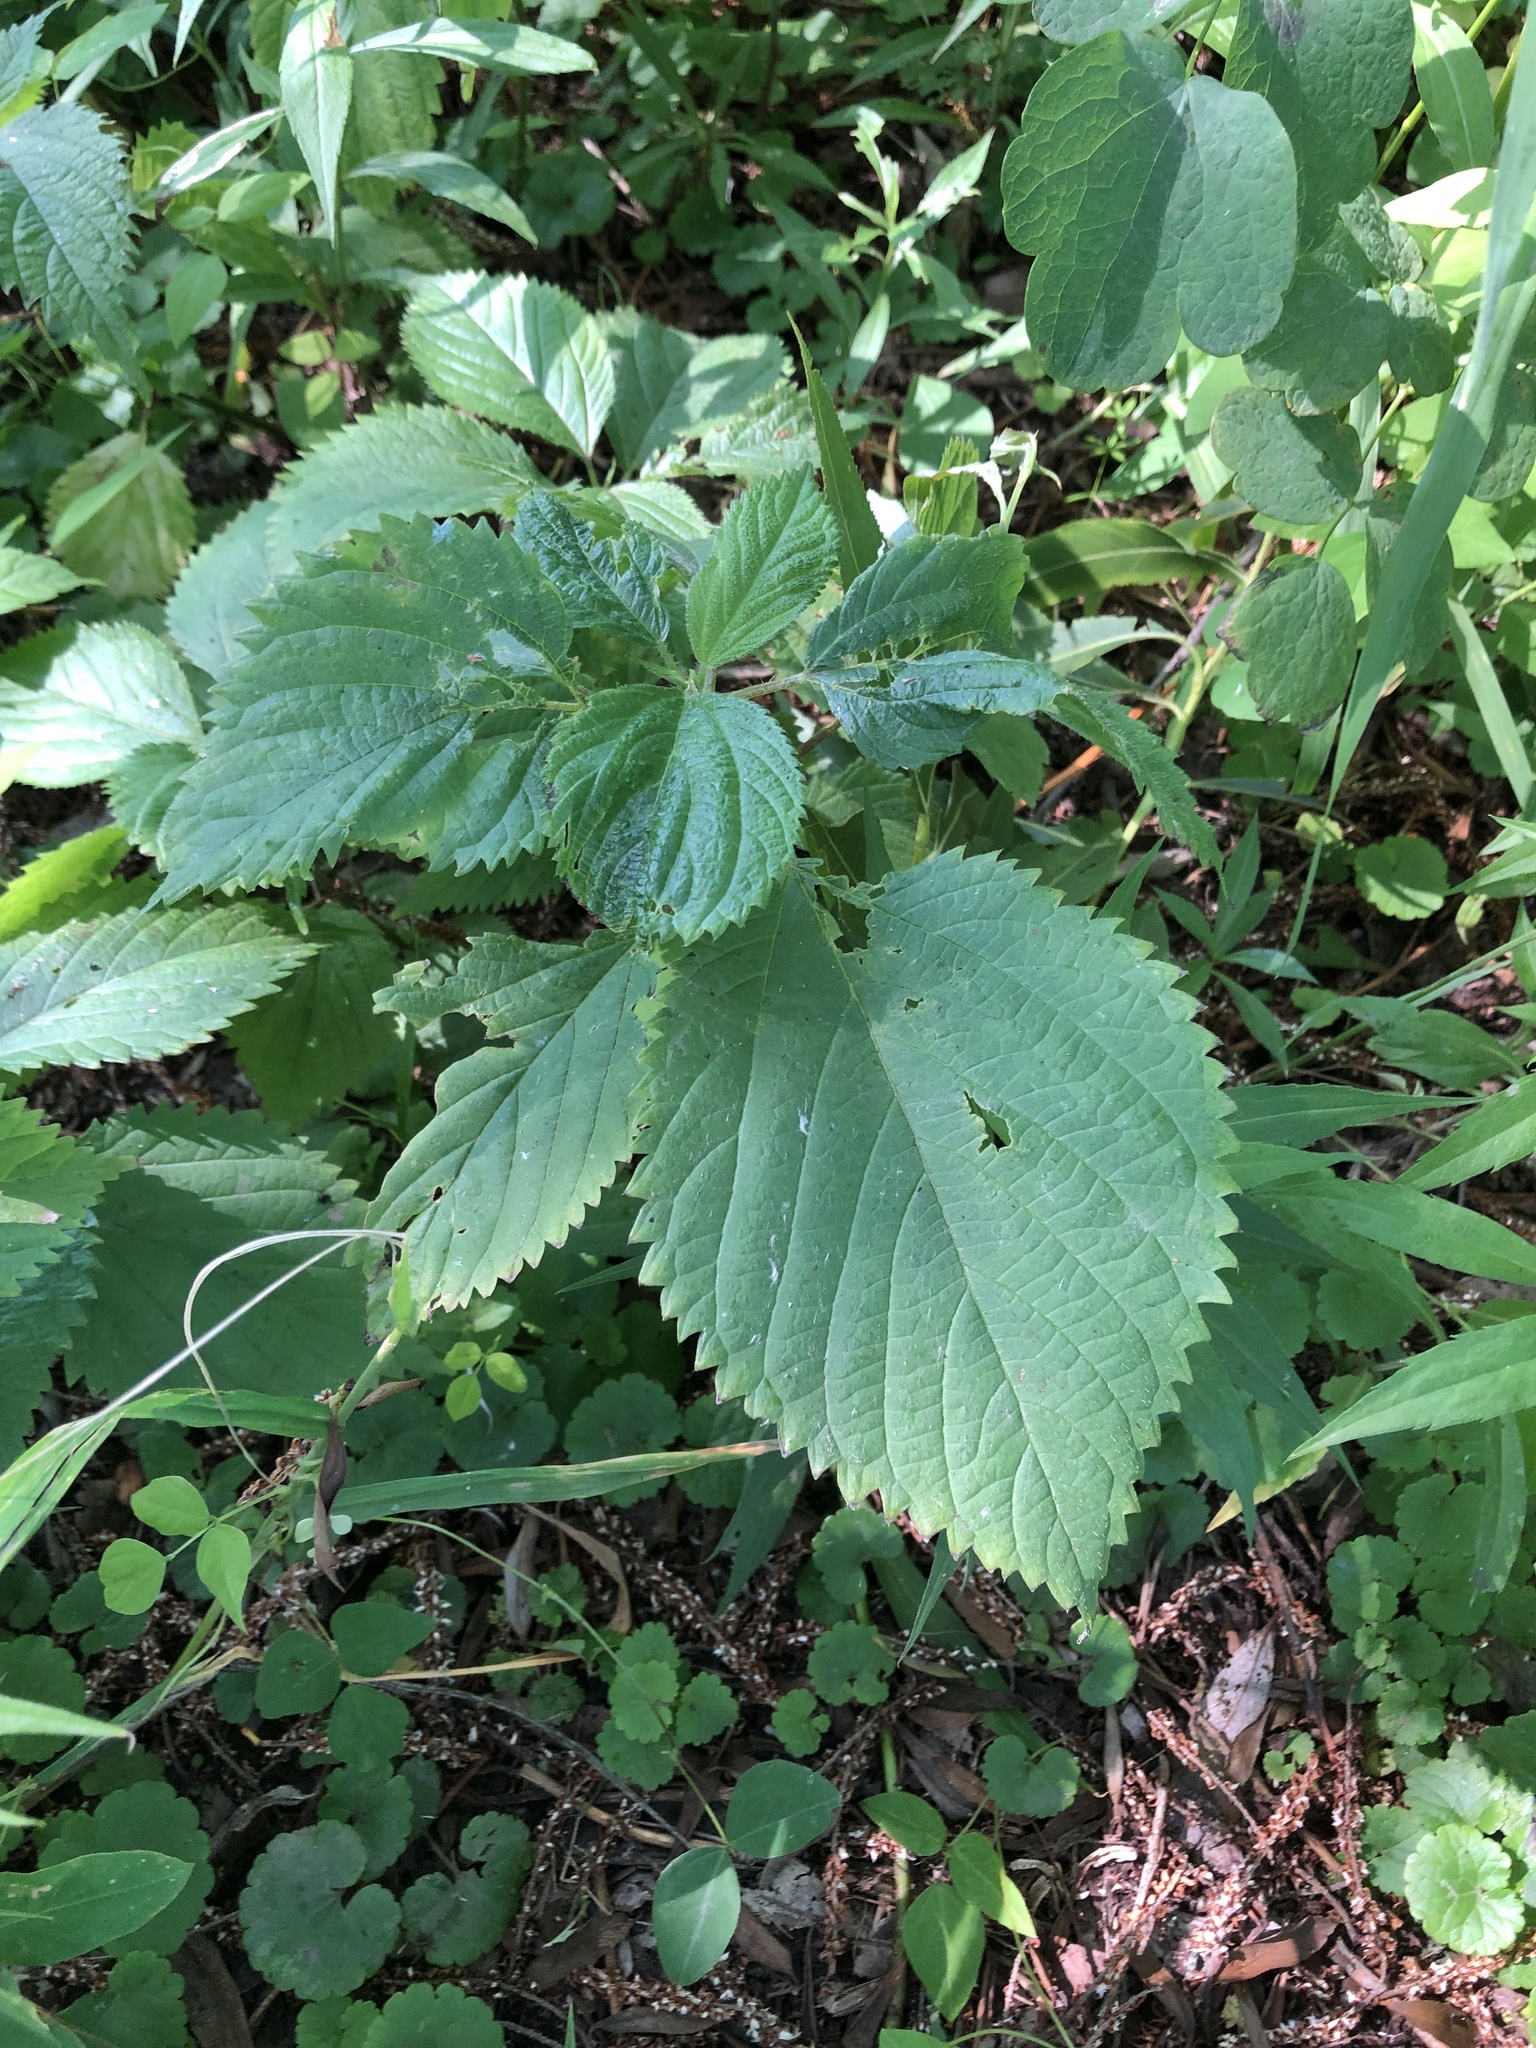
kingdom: Plantae
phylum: Tracheophyta
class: Magnoliopsida
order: Rosales
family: Urticaceae
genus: Laportea
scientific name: Laportea canadensis
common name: Canada nettle
